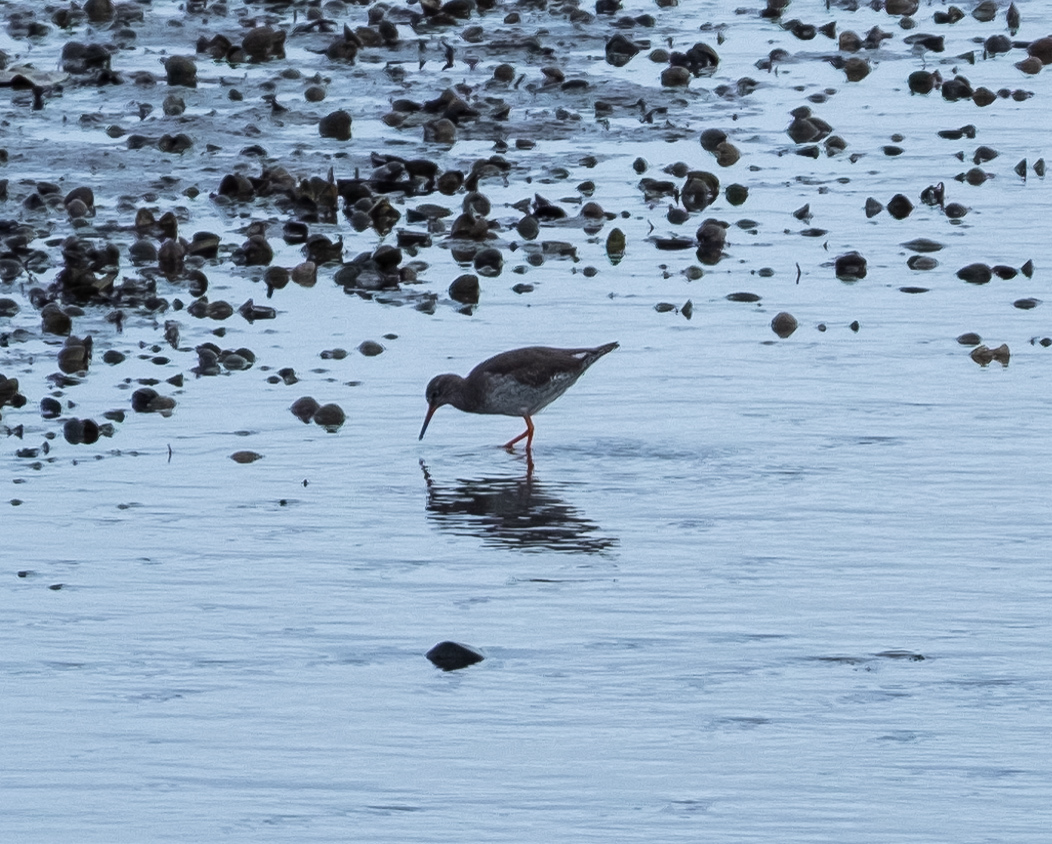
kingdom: Animalia
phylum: Chordata
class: Aves
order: Charadriiformes
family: Scolopacidae
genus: Tringa
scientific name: Tringa totanus
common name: Common redshank
